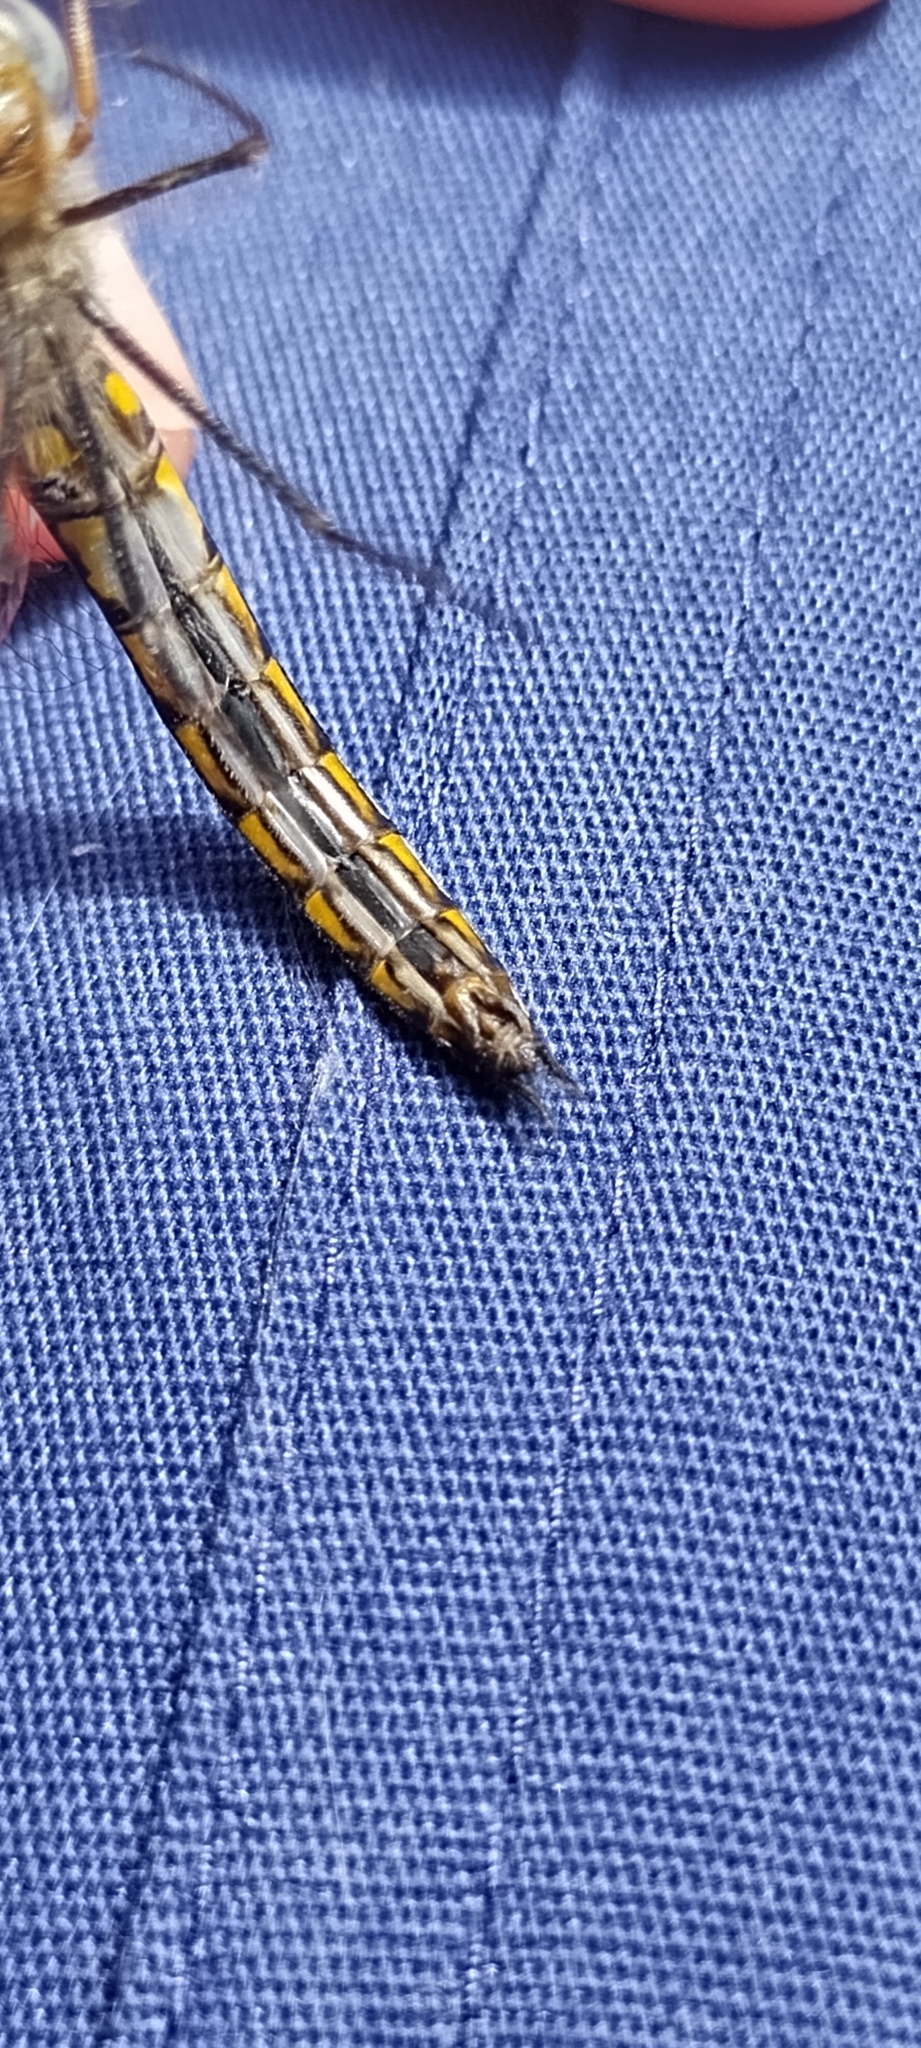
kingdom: Animalia
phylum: Arthropoda
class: Insecta
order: Odonata
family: Corduliidae
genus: Epitheca
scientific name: Epitheca cynosura
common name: Common baskettail
